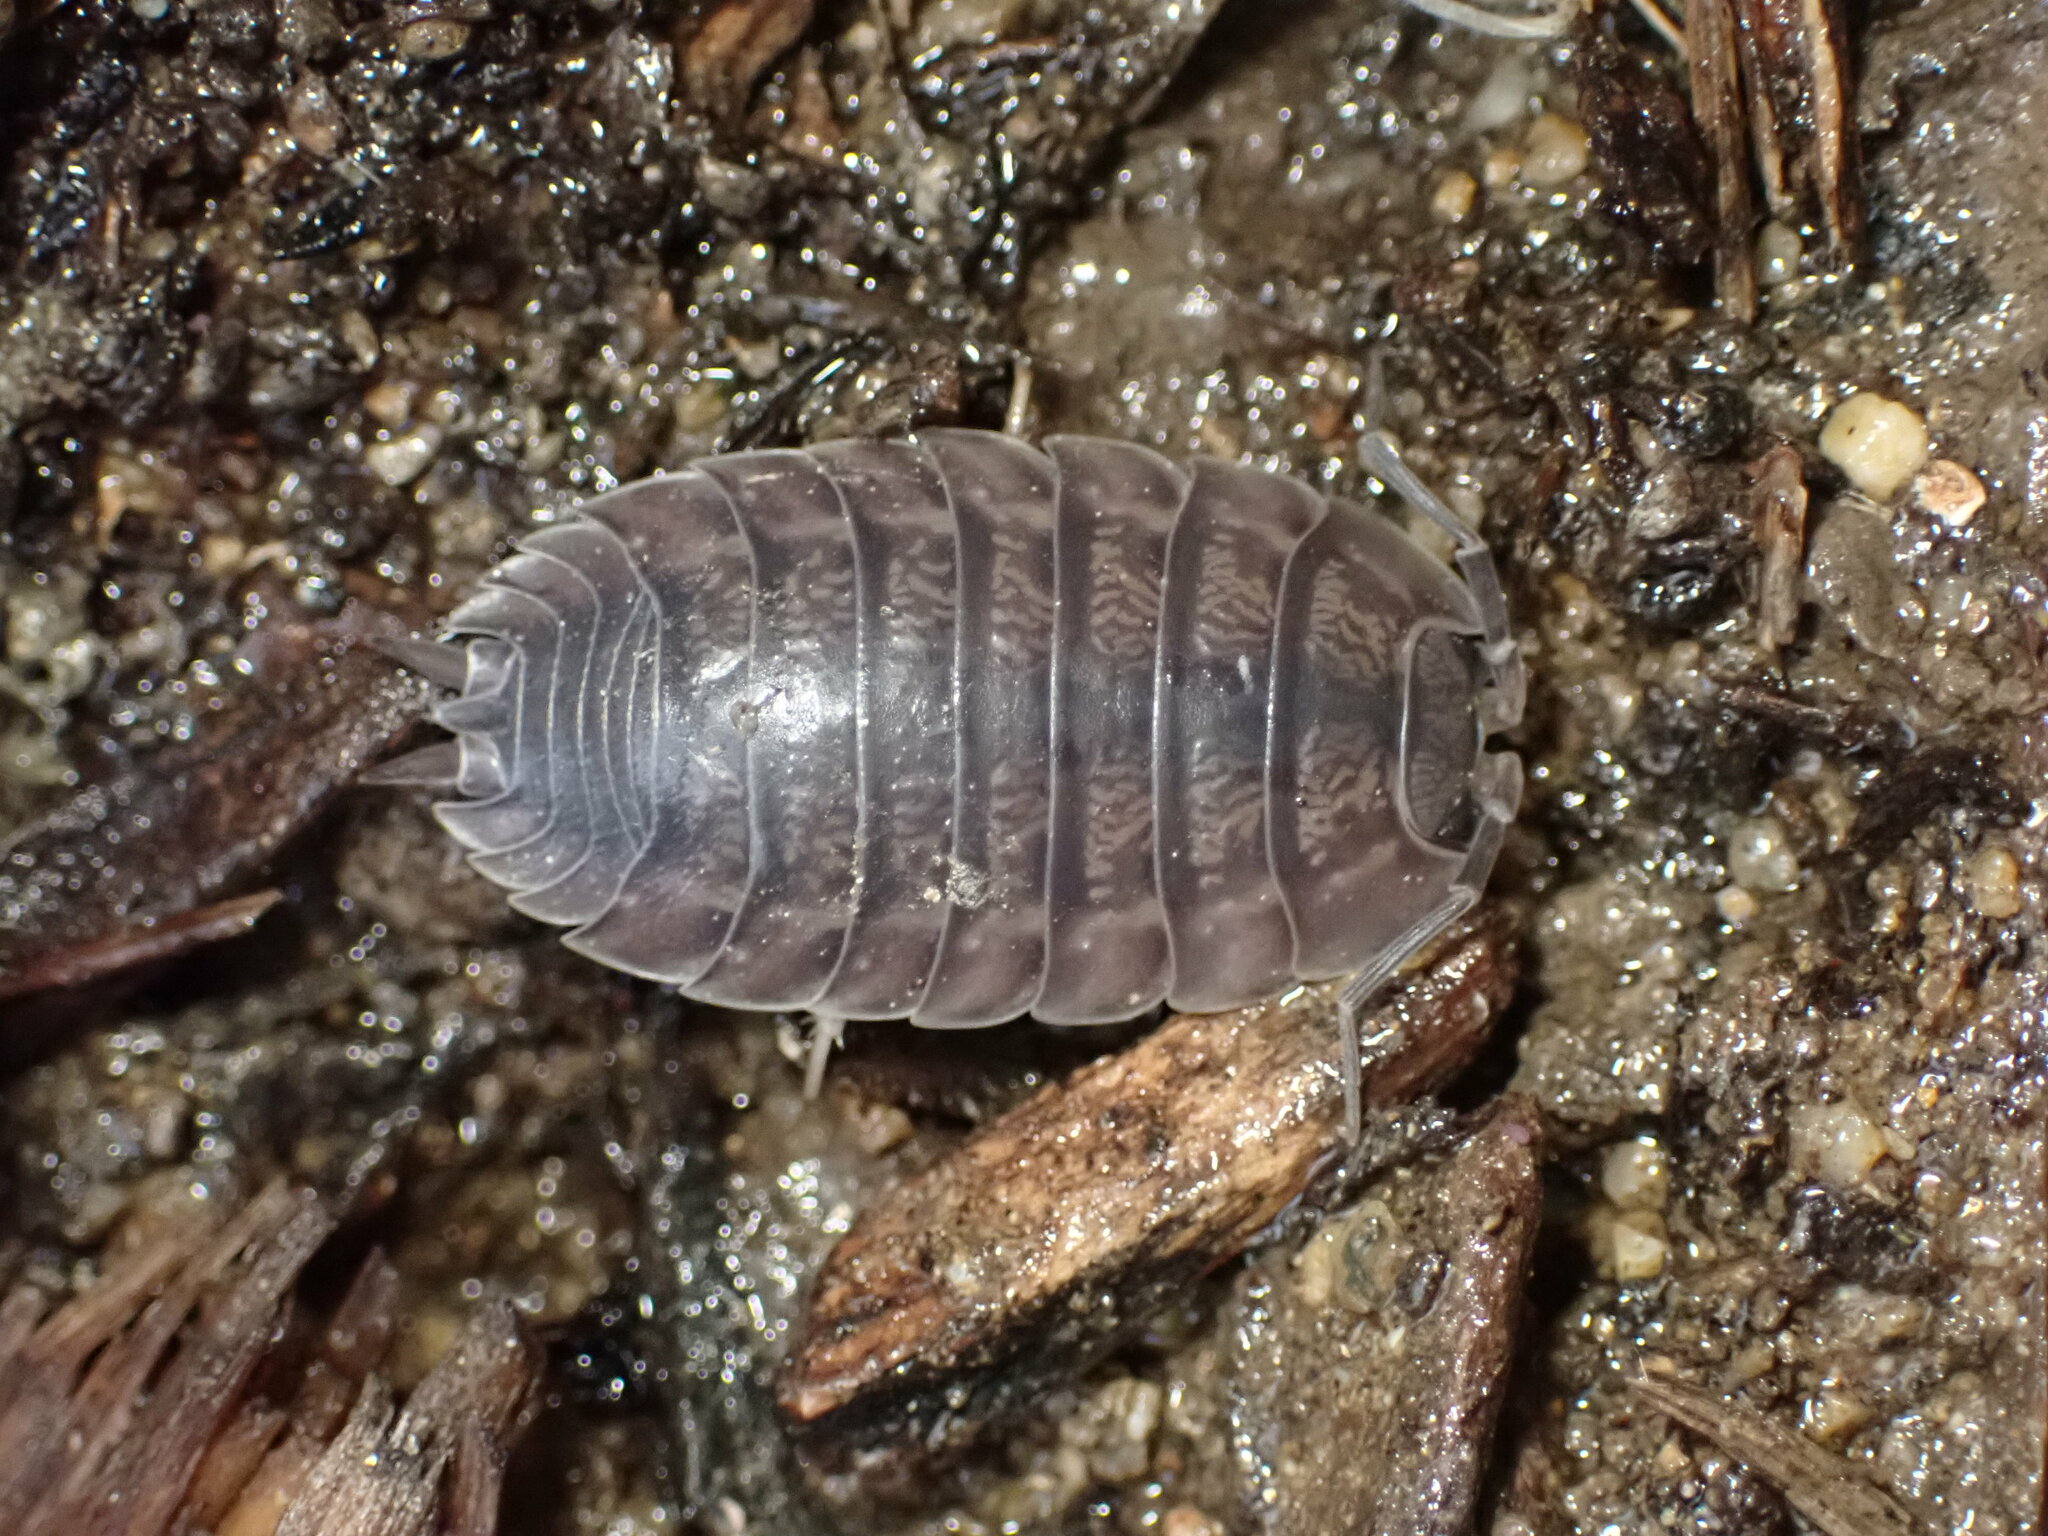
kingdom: Animalia
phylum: Arthropoda
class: Malacostraca
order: Isopoda
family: Porcellionidae
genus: Porcellio
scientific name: Porcellio dilatatus
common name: Isopod
